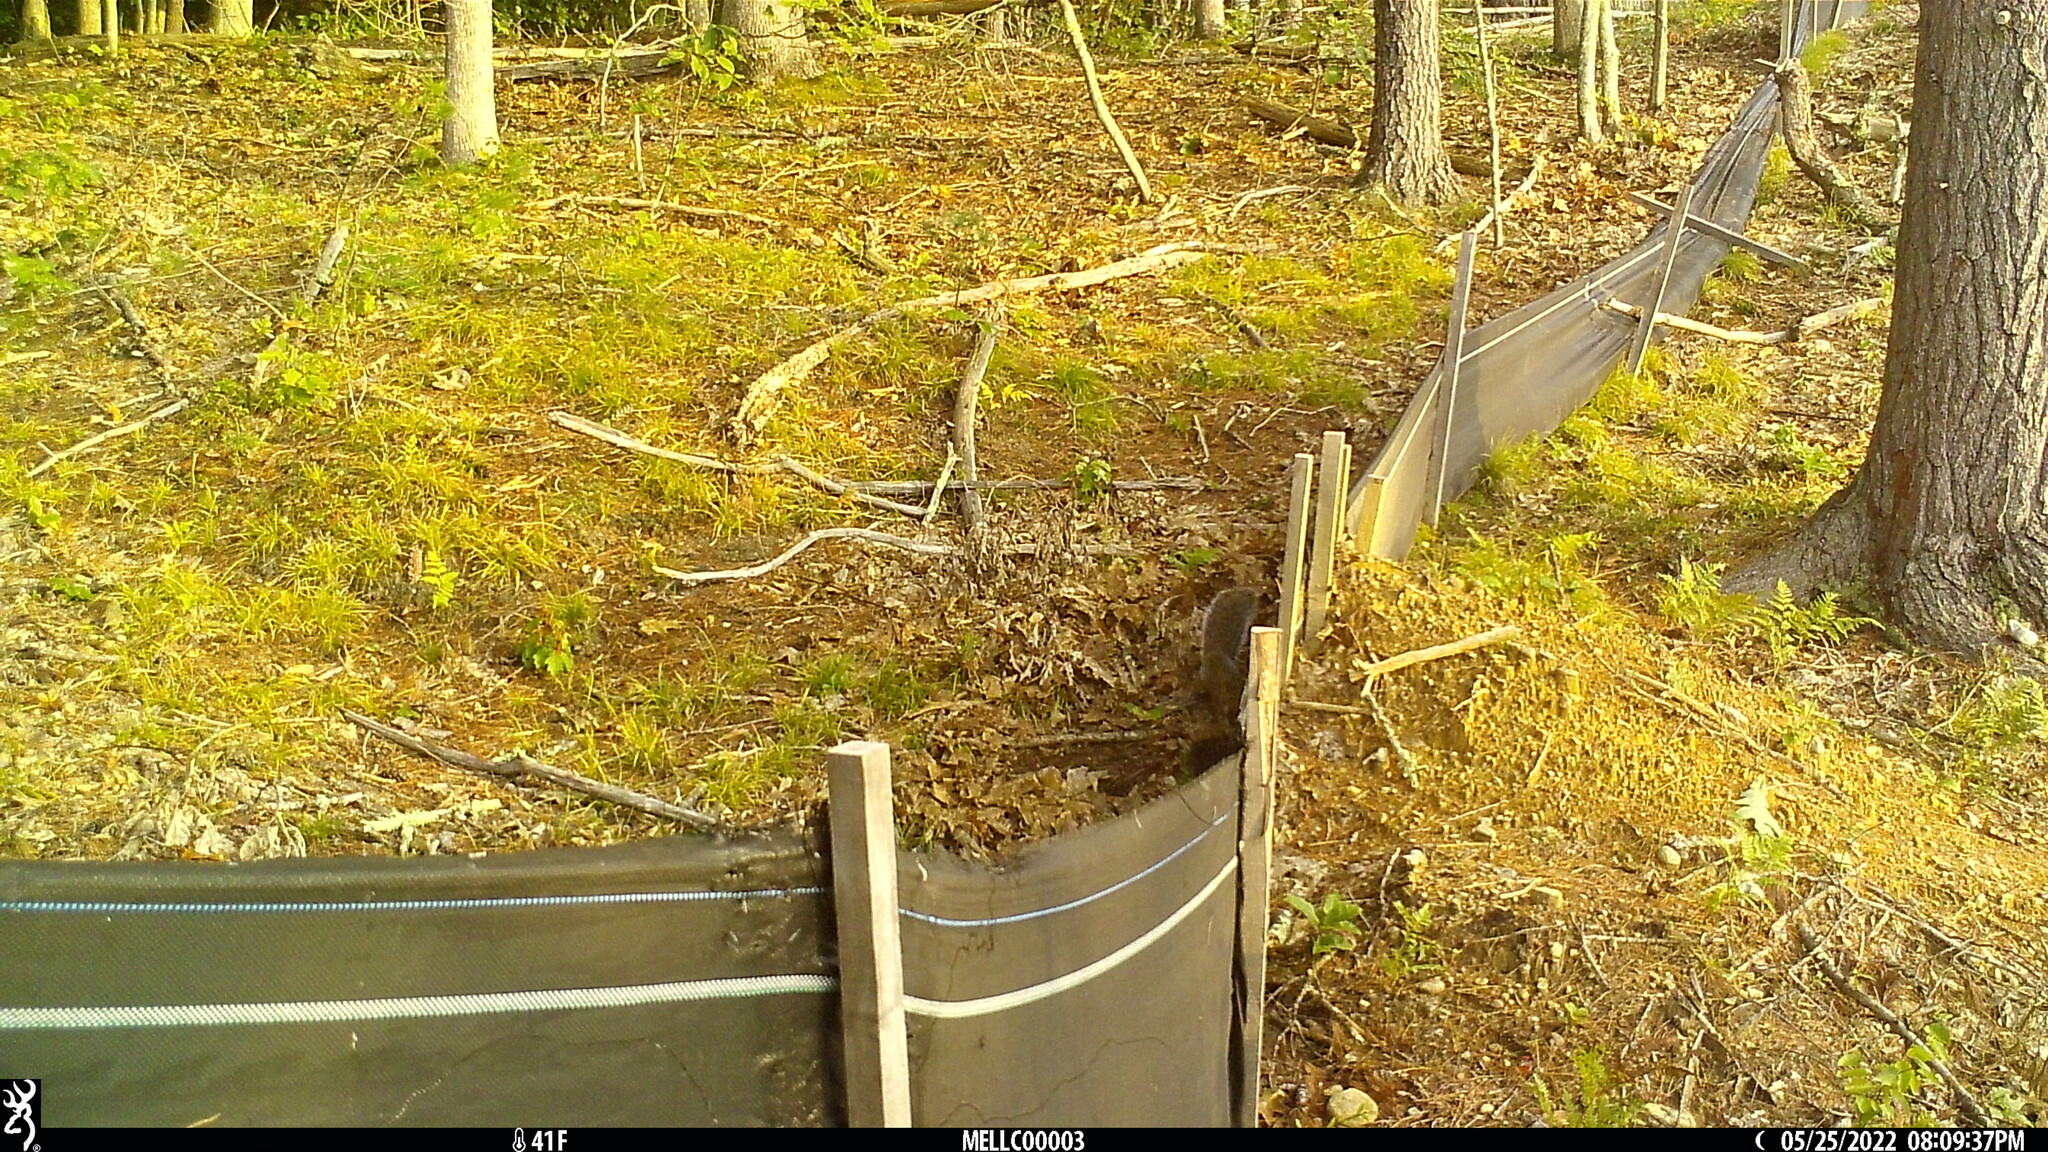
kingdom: Animalia
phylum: Chordata
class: Mammalia
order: Rodentia
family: Sciuridae
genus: Sciurus
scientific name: Sciurus carolinensis
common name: Eastern gray squirrel
